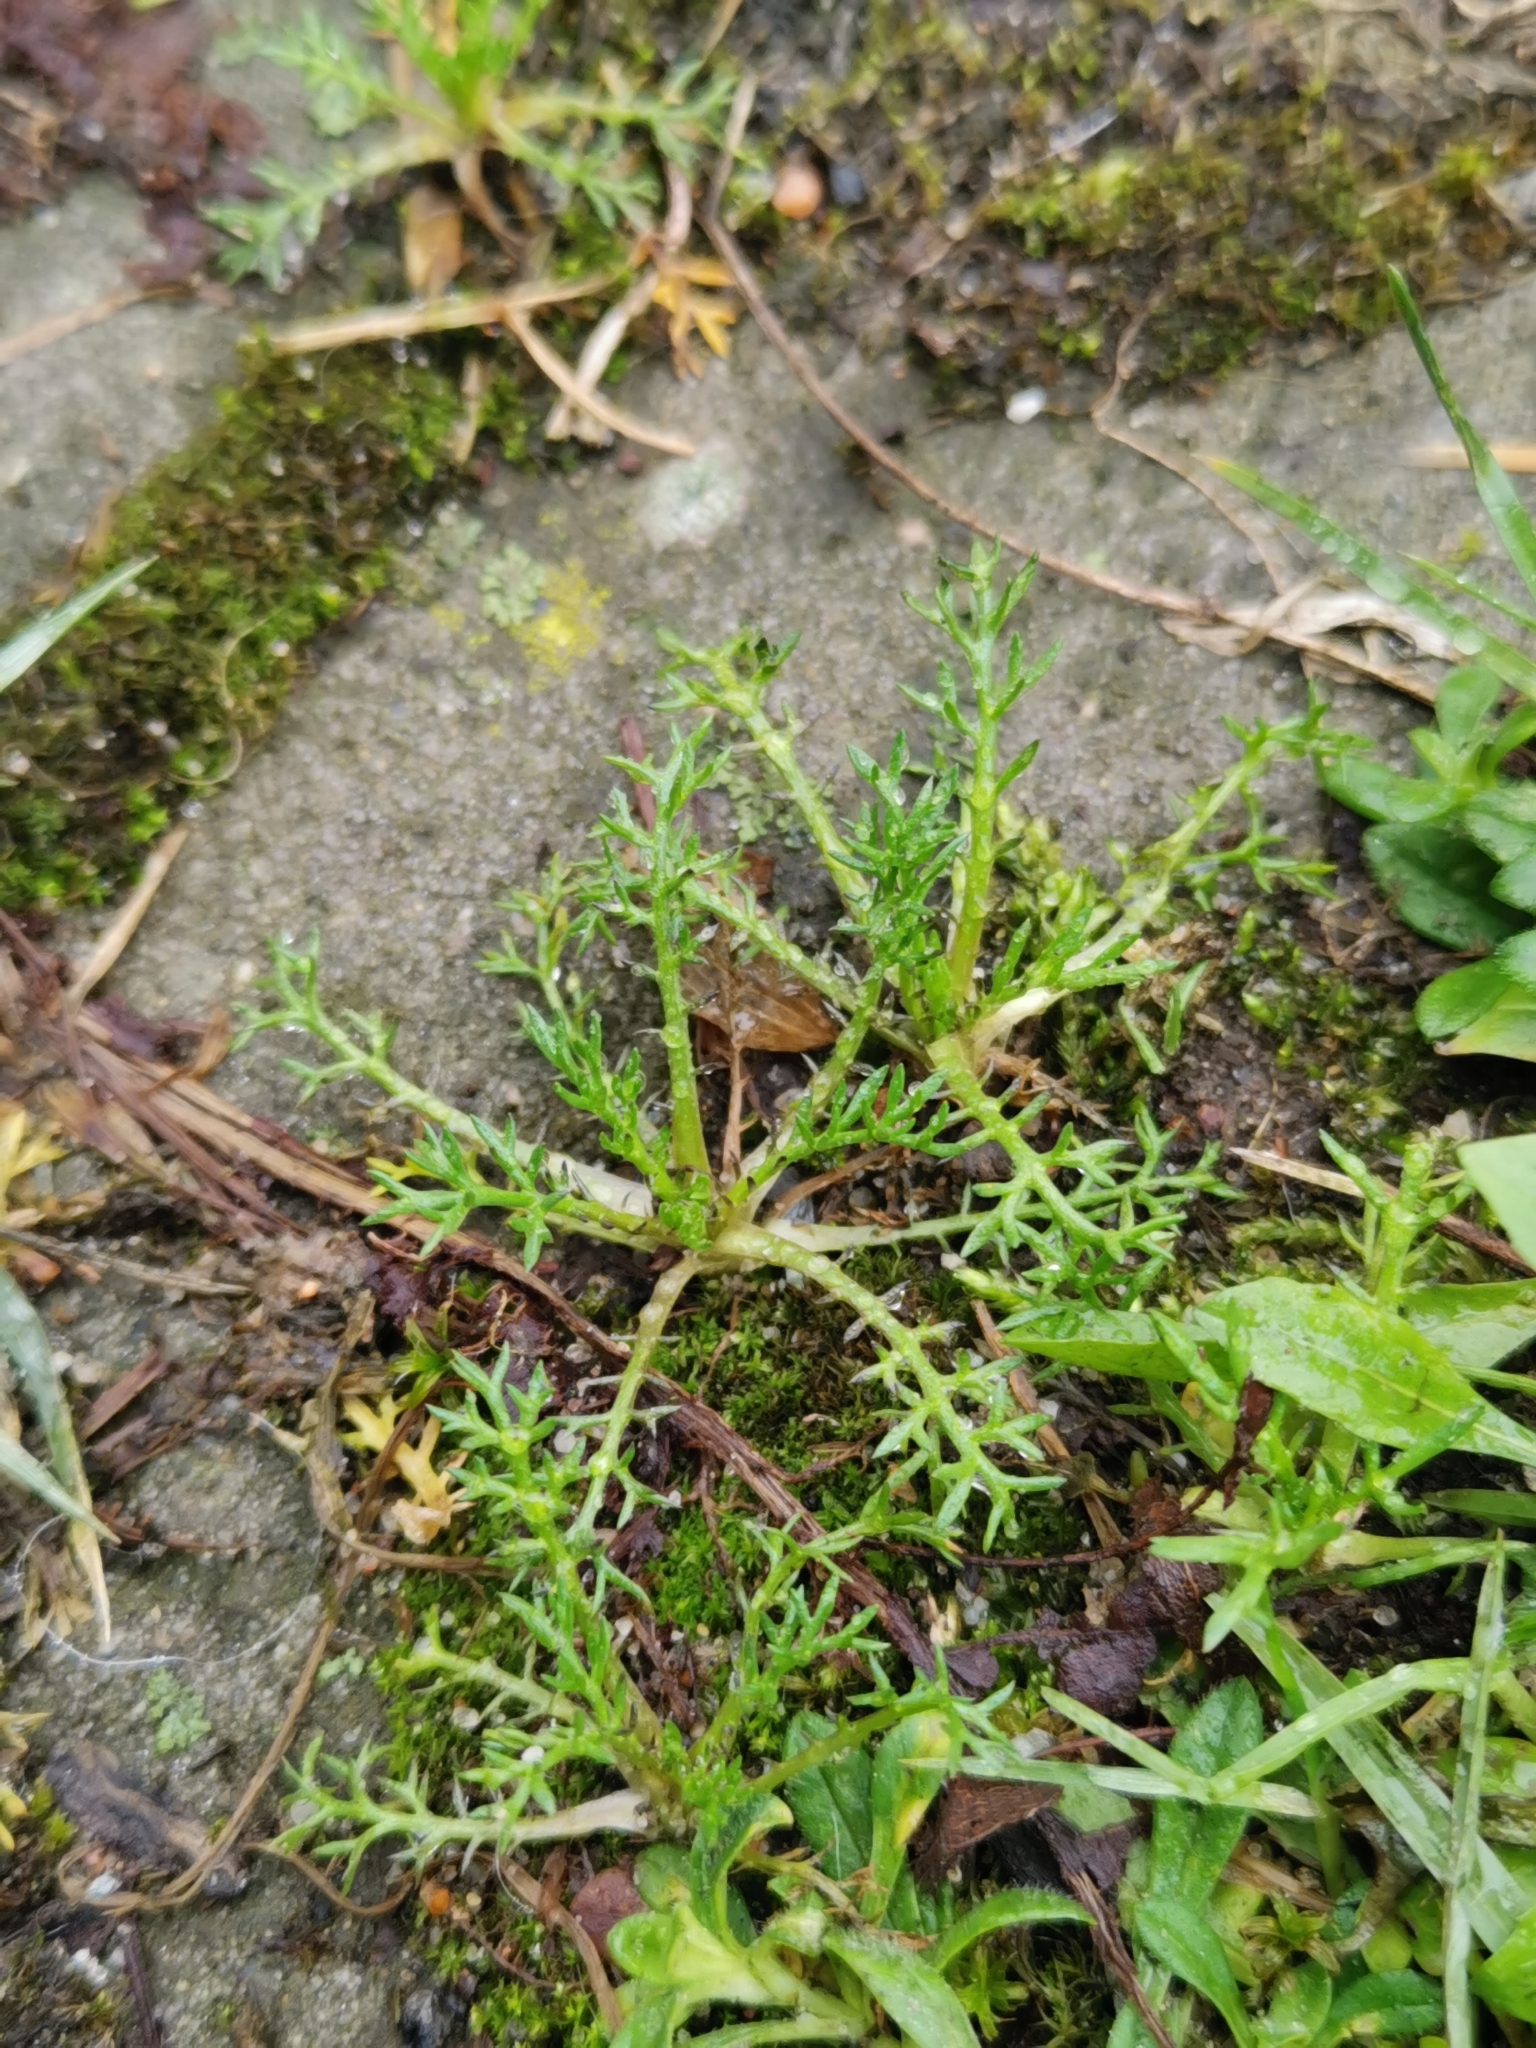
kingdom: Plantae
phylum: Tracheophyta
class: Magnoliopsida
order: Asterales
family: Asteraceae
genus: Matricaria
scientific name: Matricaria discoidea
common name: Disc mayweed
